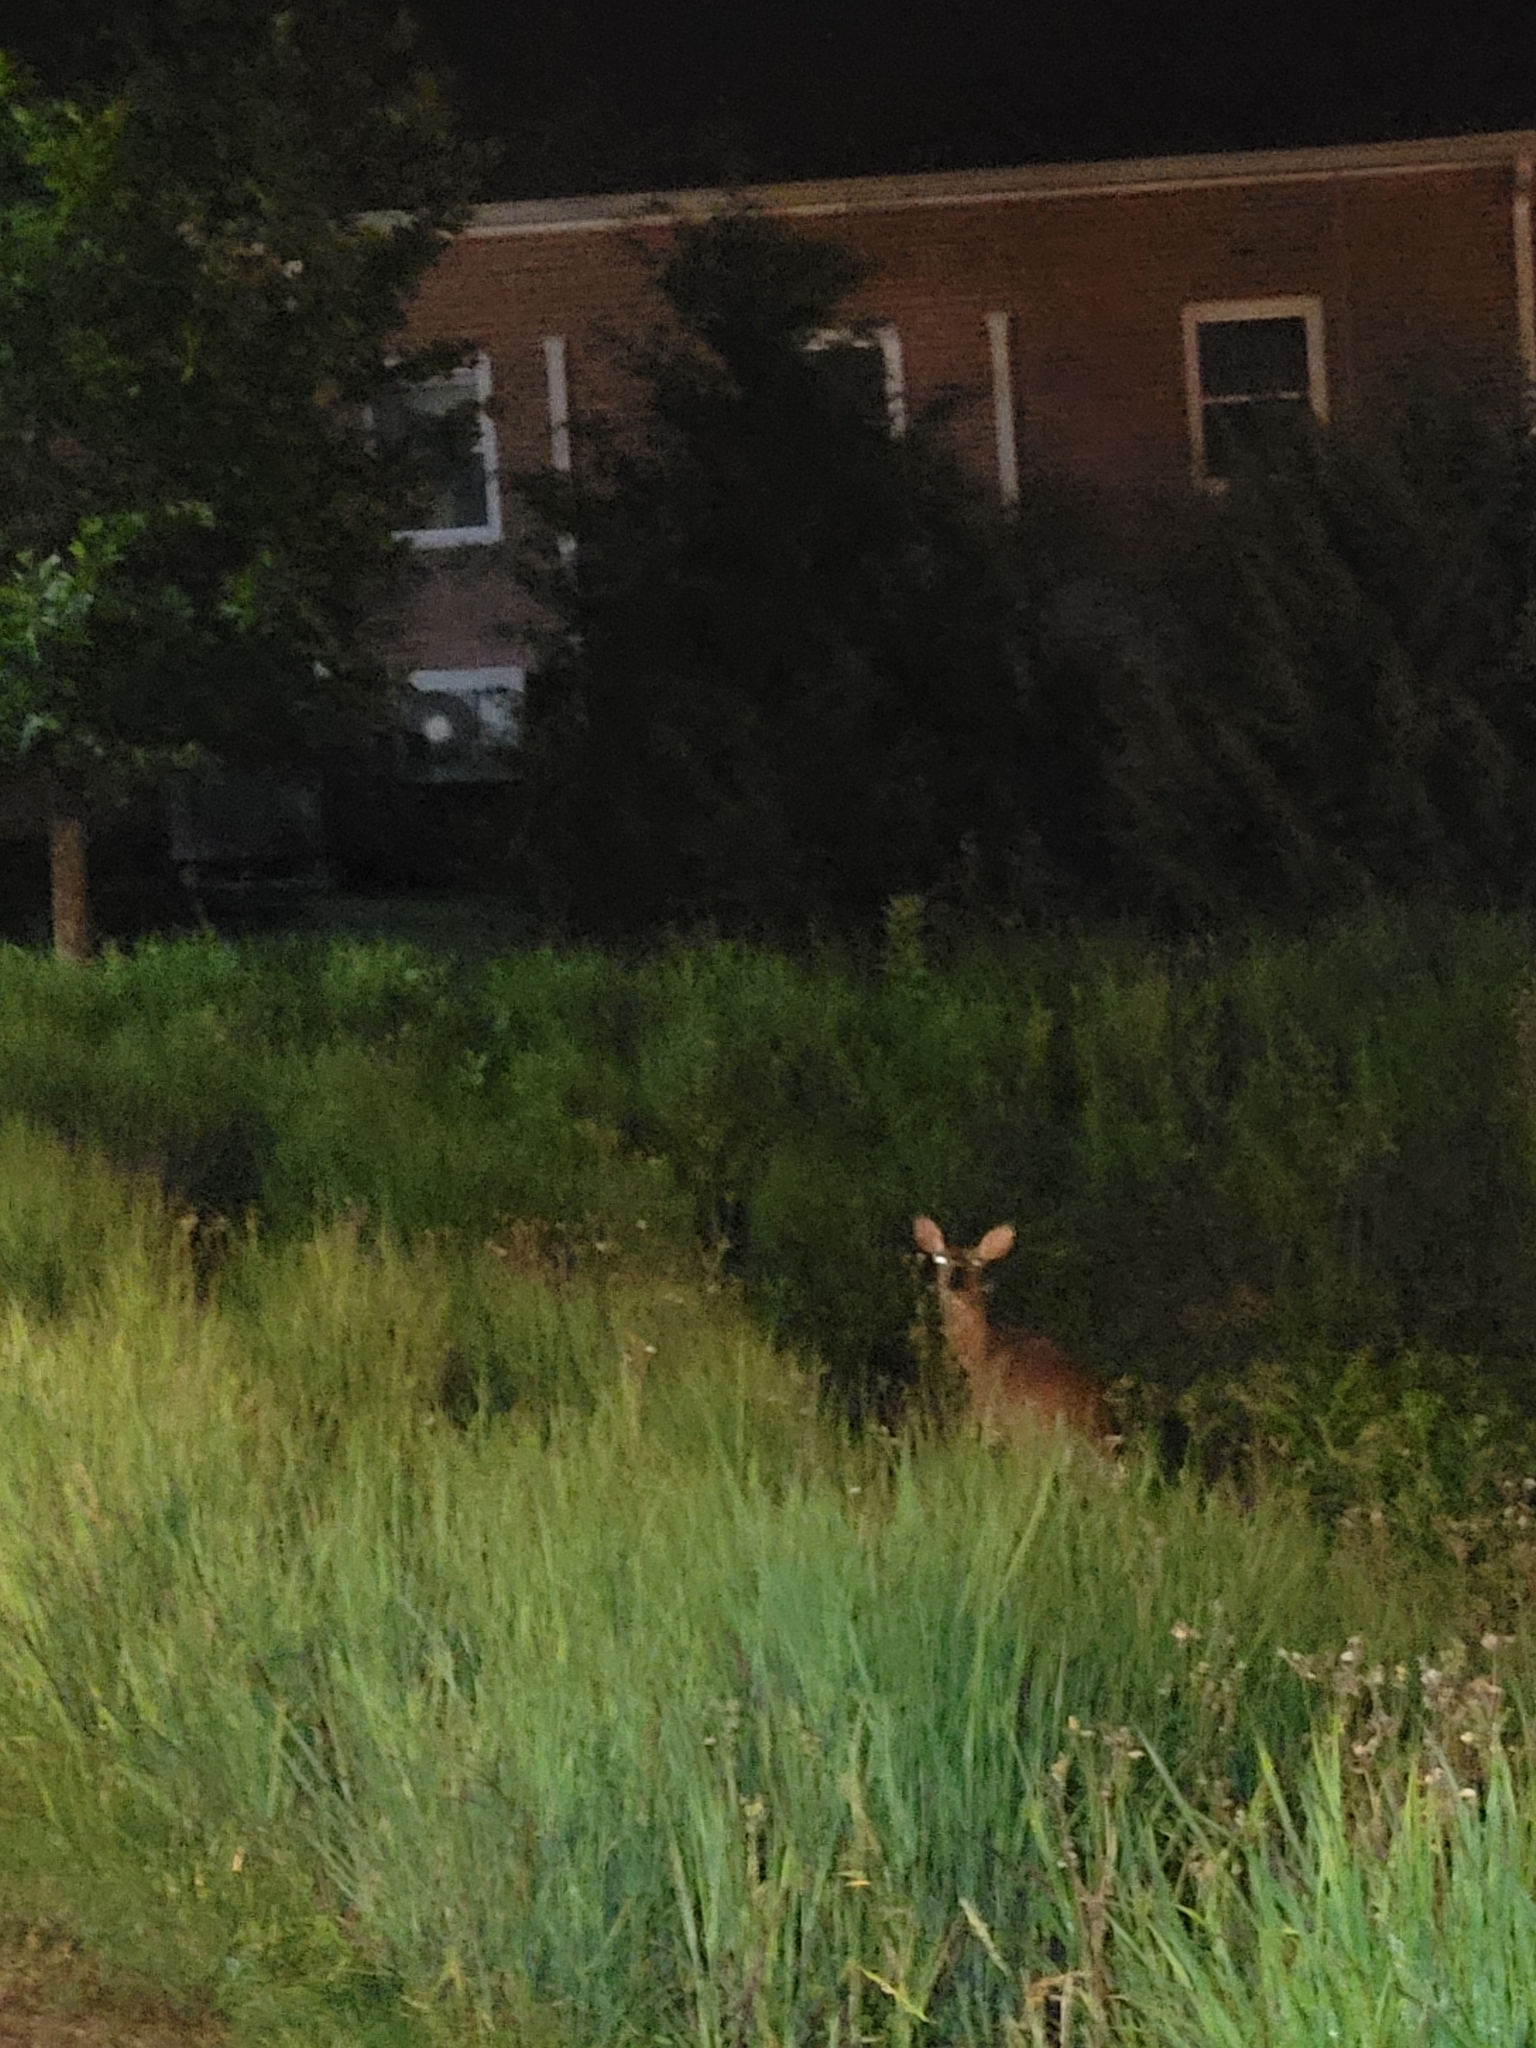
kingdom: Animalia
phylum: Chordata
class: Mammalia
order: Artiodactyla
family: Cervidae
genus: Odocoileus
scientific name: Odocoileus virginianus
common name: White-tailed deer
